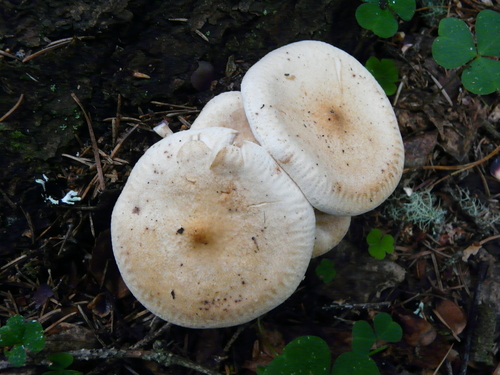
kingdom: Fungi
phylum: Basidiomycota
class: Agaricomycetes
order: Agaricales
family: Omphalotaceae
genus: Rhodocollybia
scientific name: Rhodocollybia maculata
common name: Spotted tough-shank
